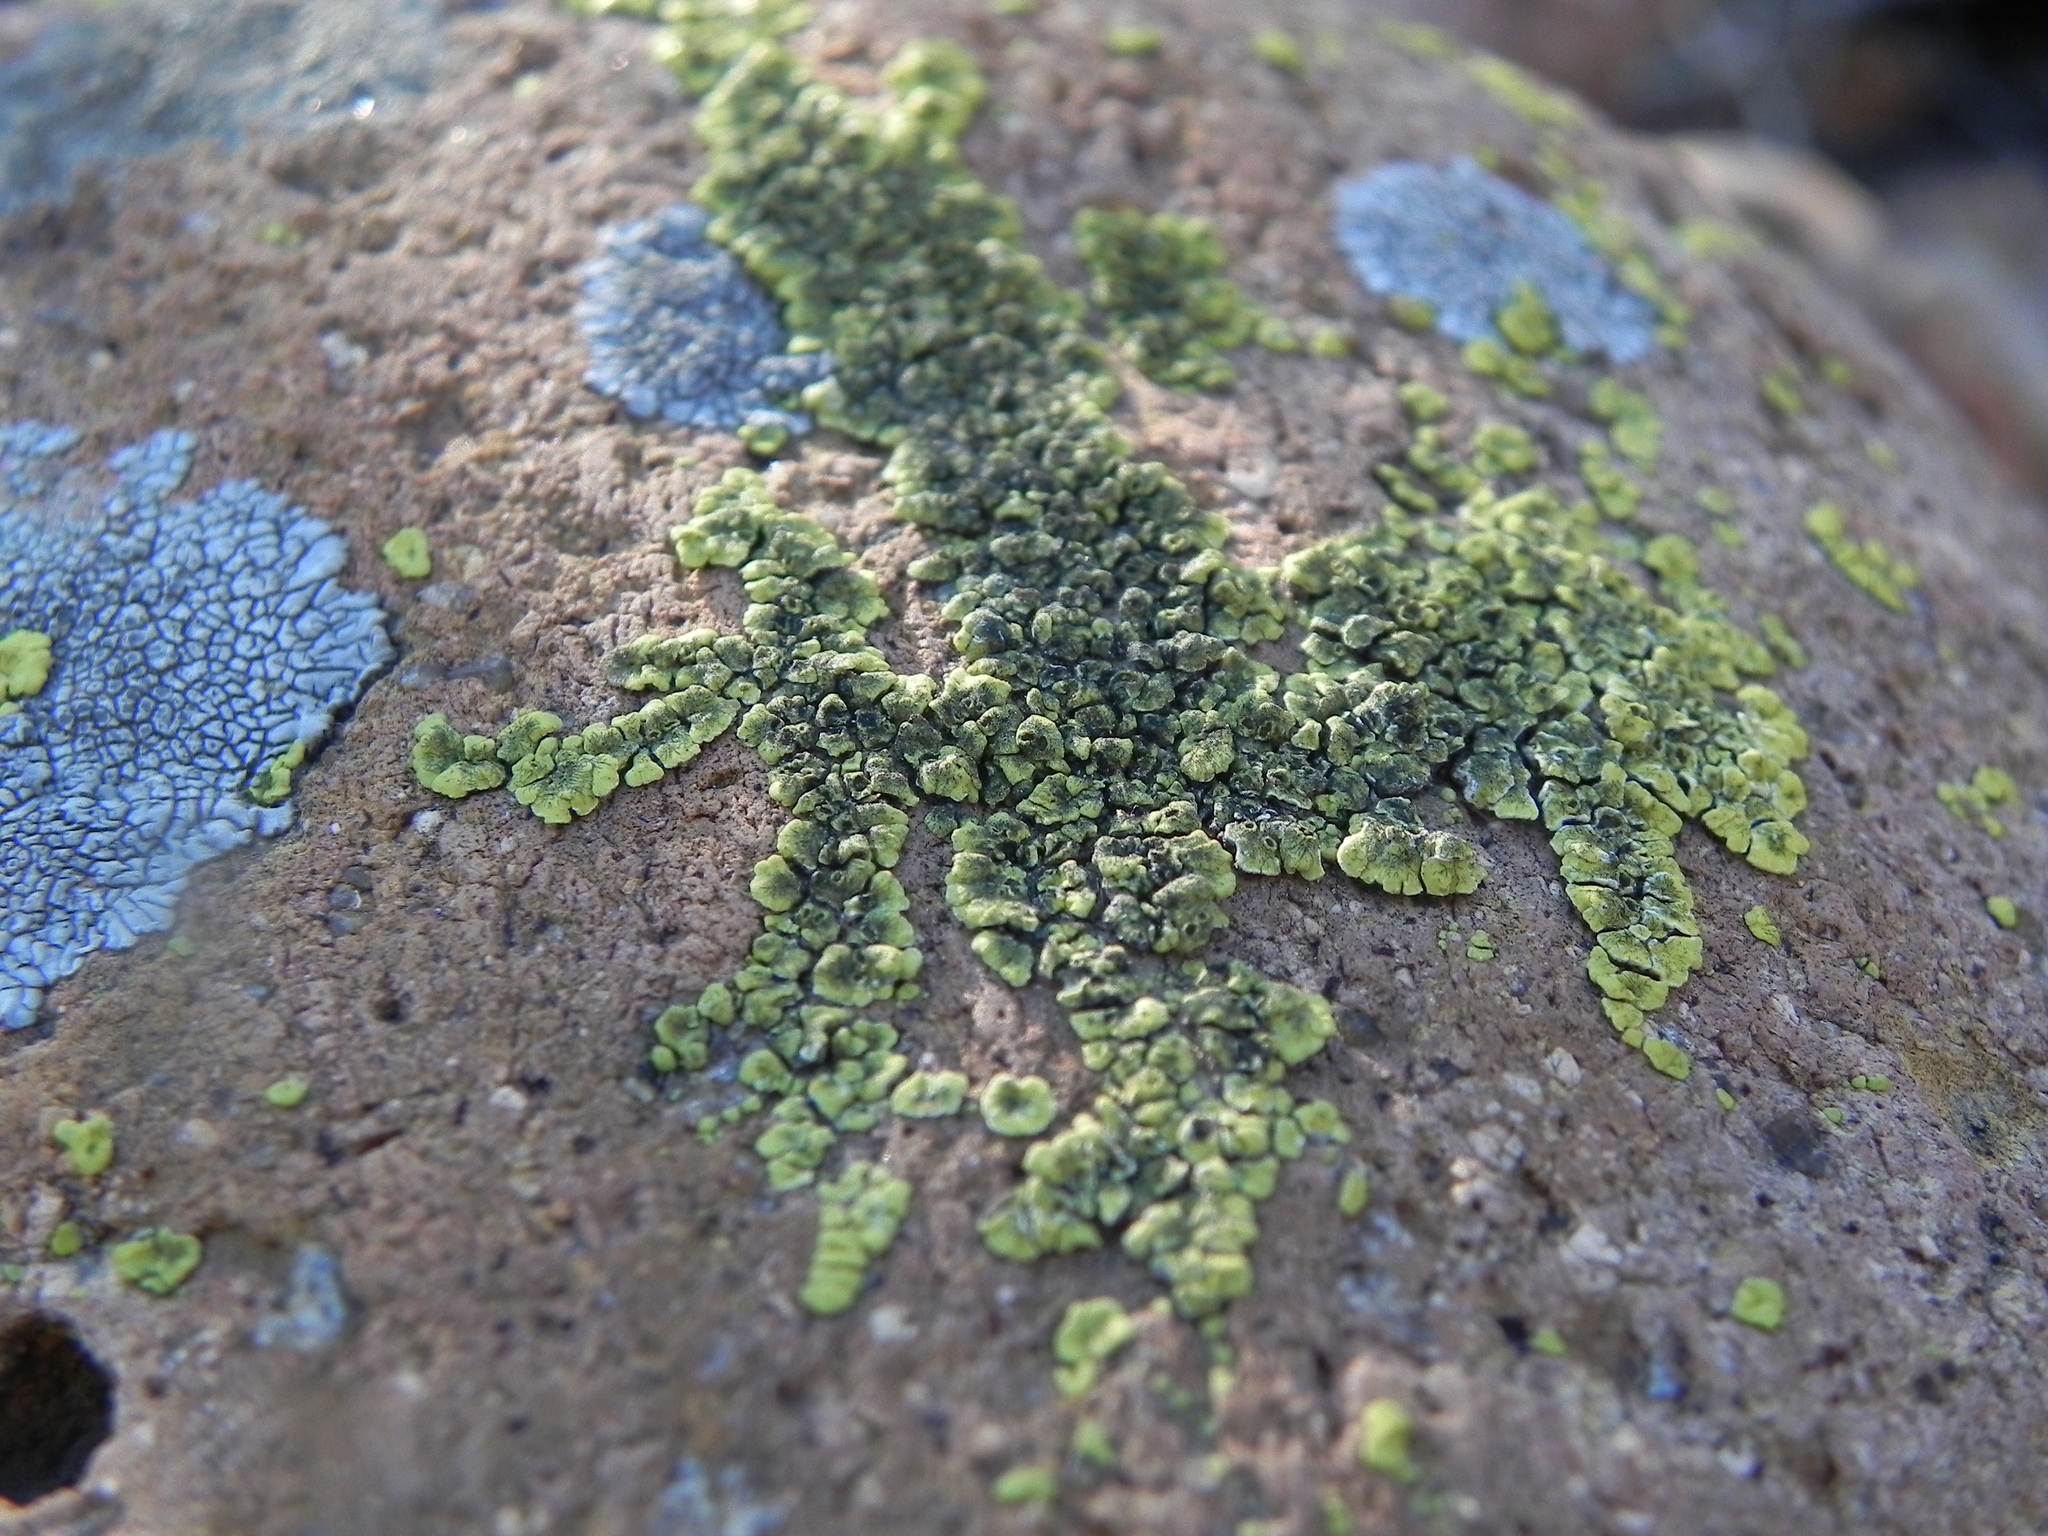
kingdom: Fungi
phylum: Ascomycota
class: Lecanoromycetes
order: Acarosporales
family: Acarosporaceae
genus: Acarospora
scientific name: Acarospora socialis
